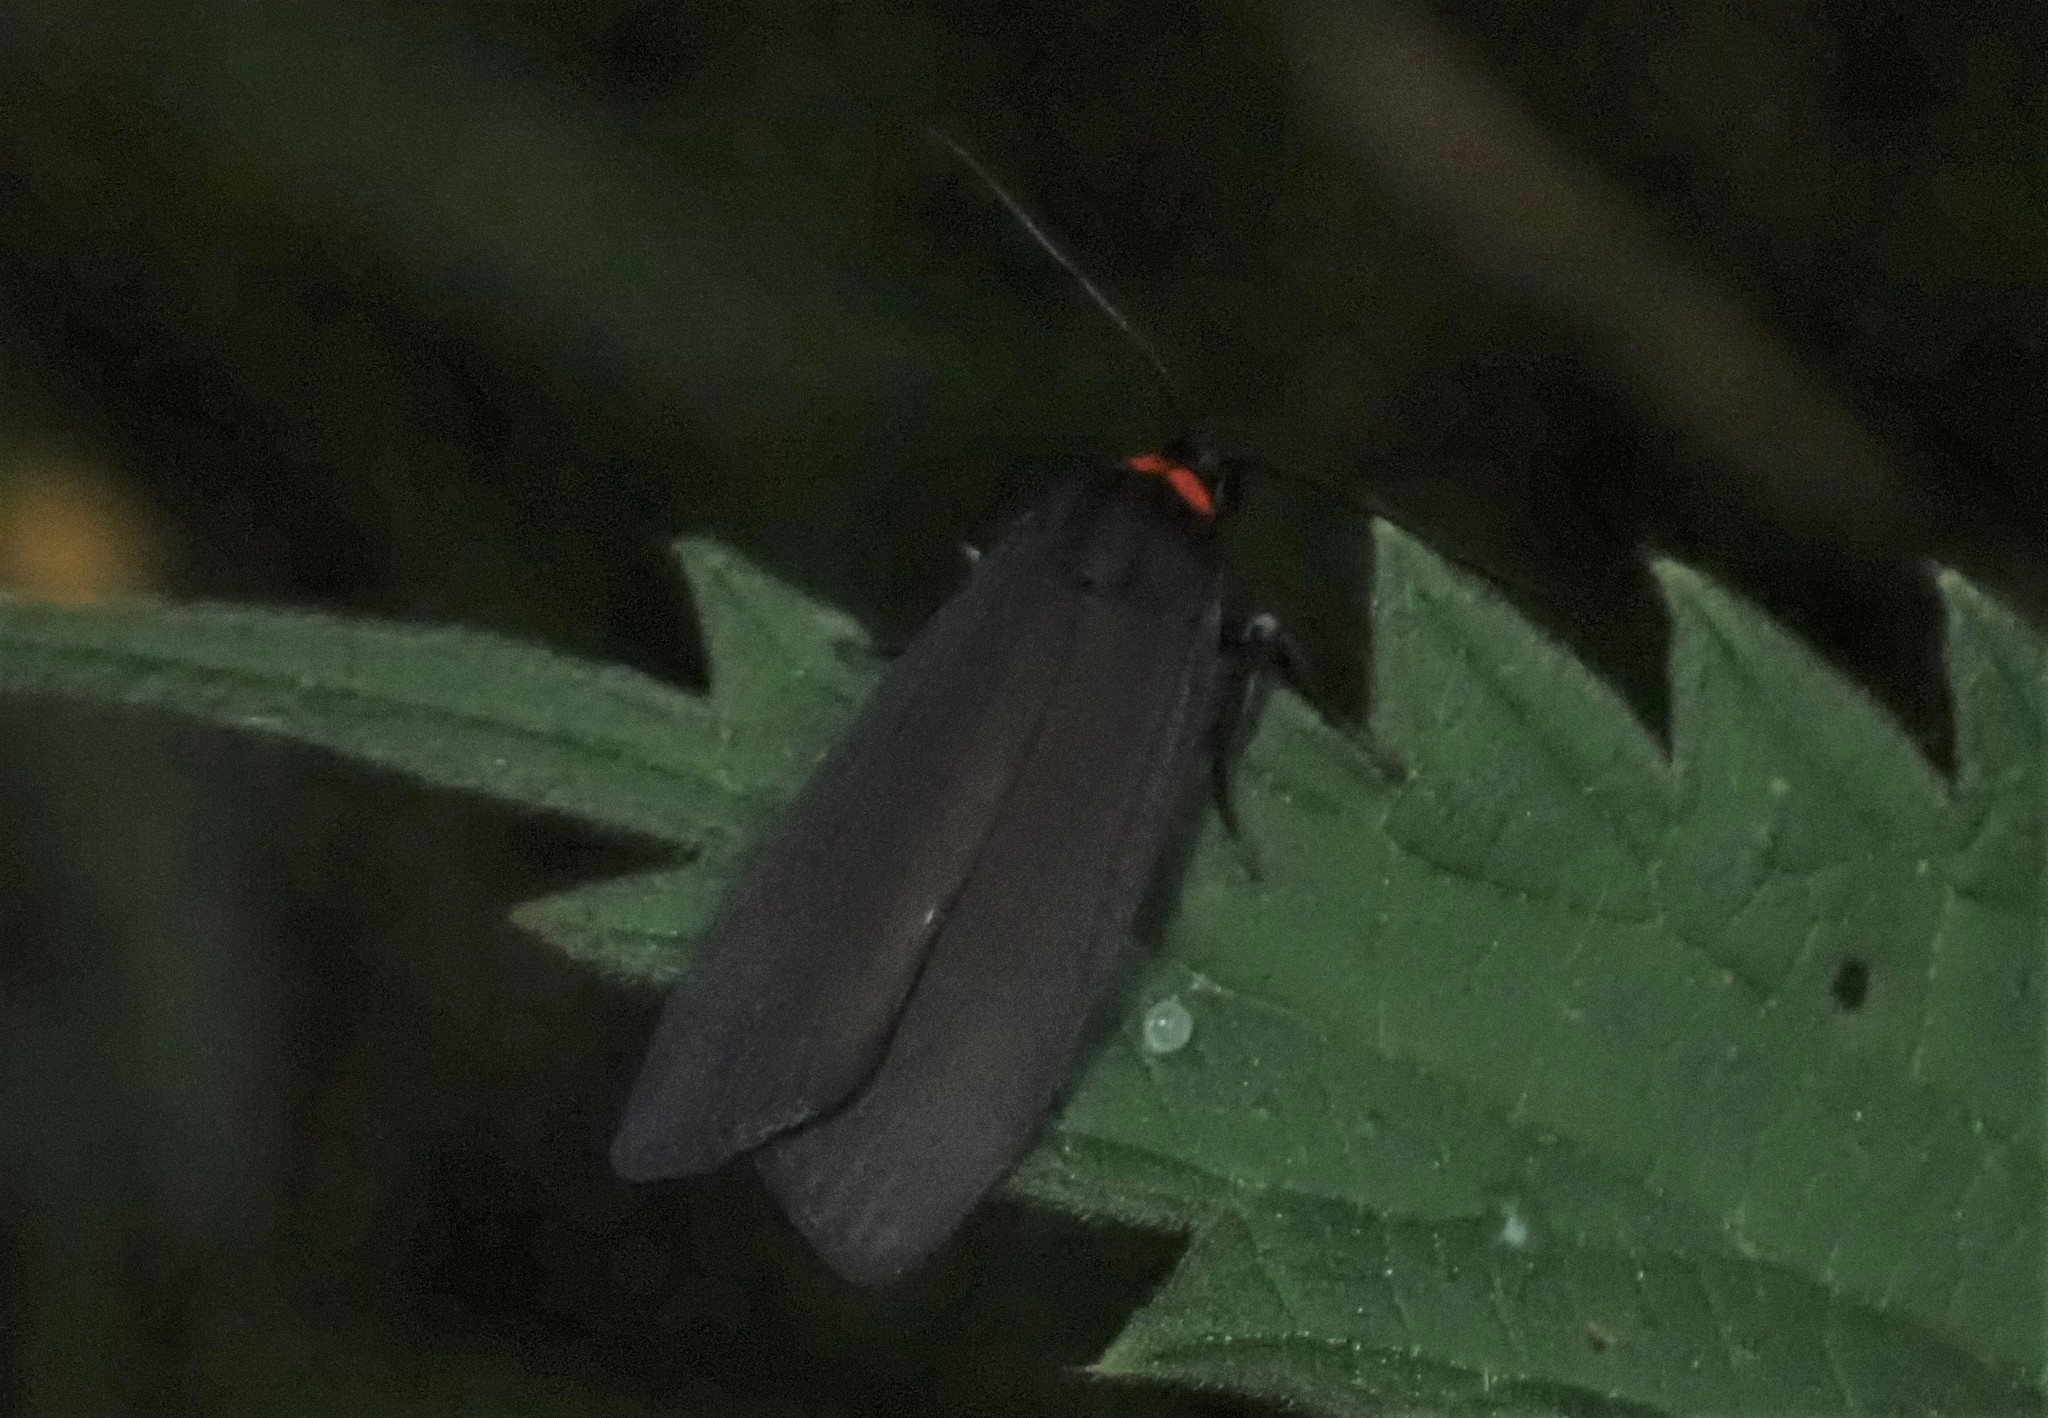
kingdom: Animalia
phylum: Arthropoda
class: Insecta
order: Lepidoptera
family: Erebidae
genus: Atolmis
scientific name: Atolmis rubricollis
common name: Red-necked footman
